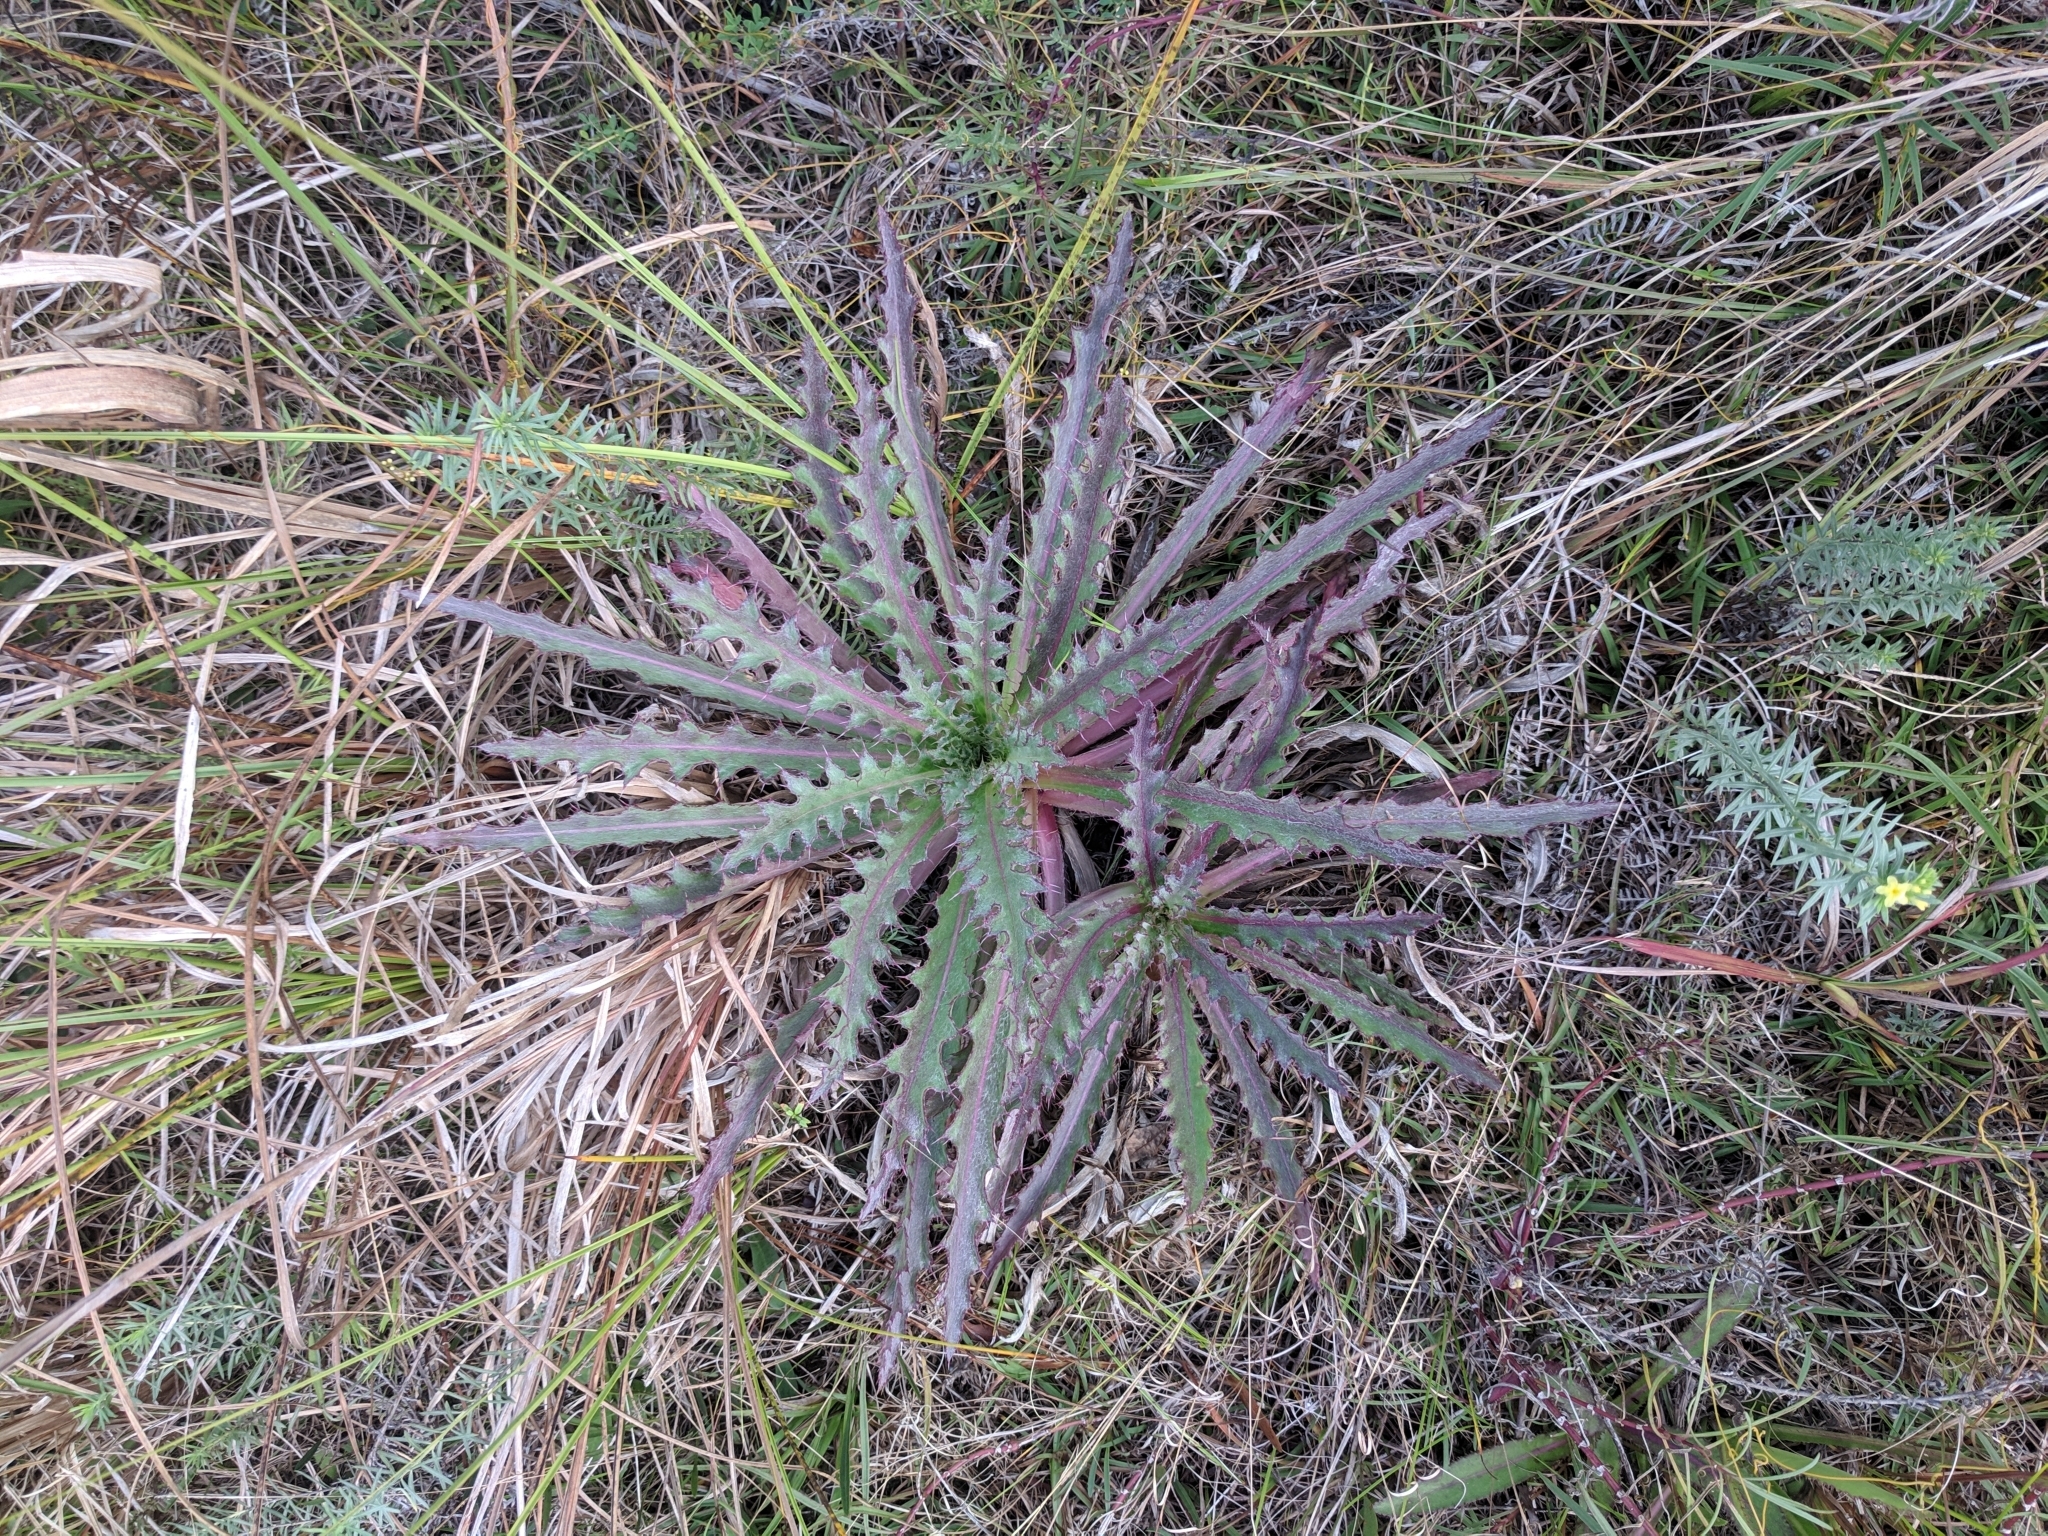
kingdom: Plantae
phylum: Tracheophyta
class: Magnoliopsida
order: Asterales
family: Asteraceae
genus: Cirsium
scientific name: Cirsium horridulum
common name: Bristly thistle
